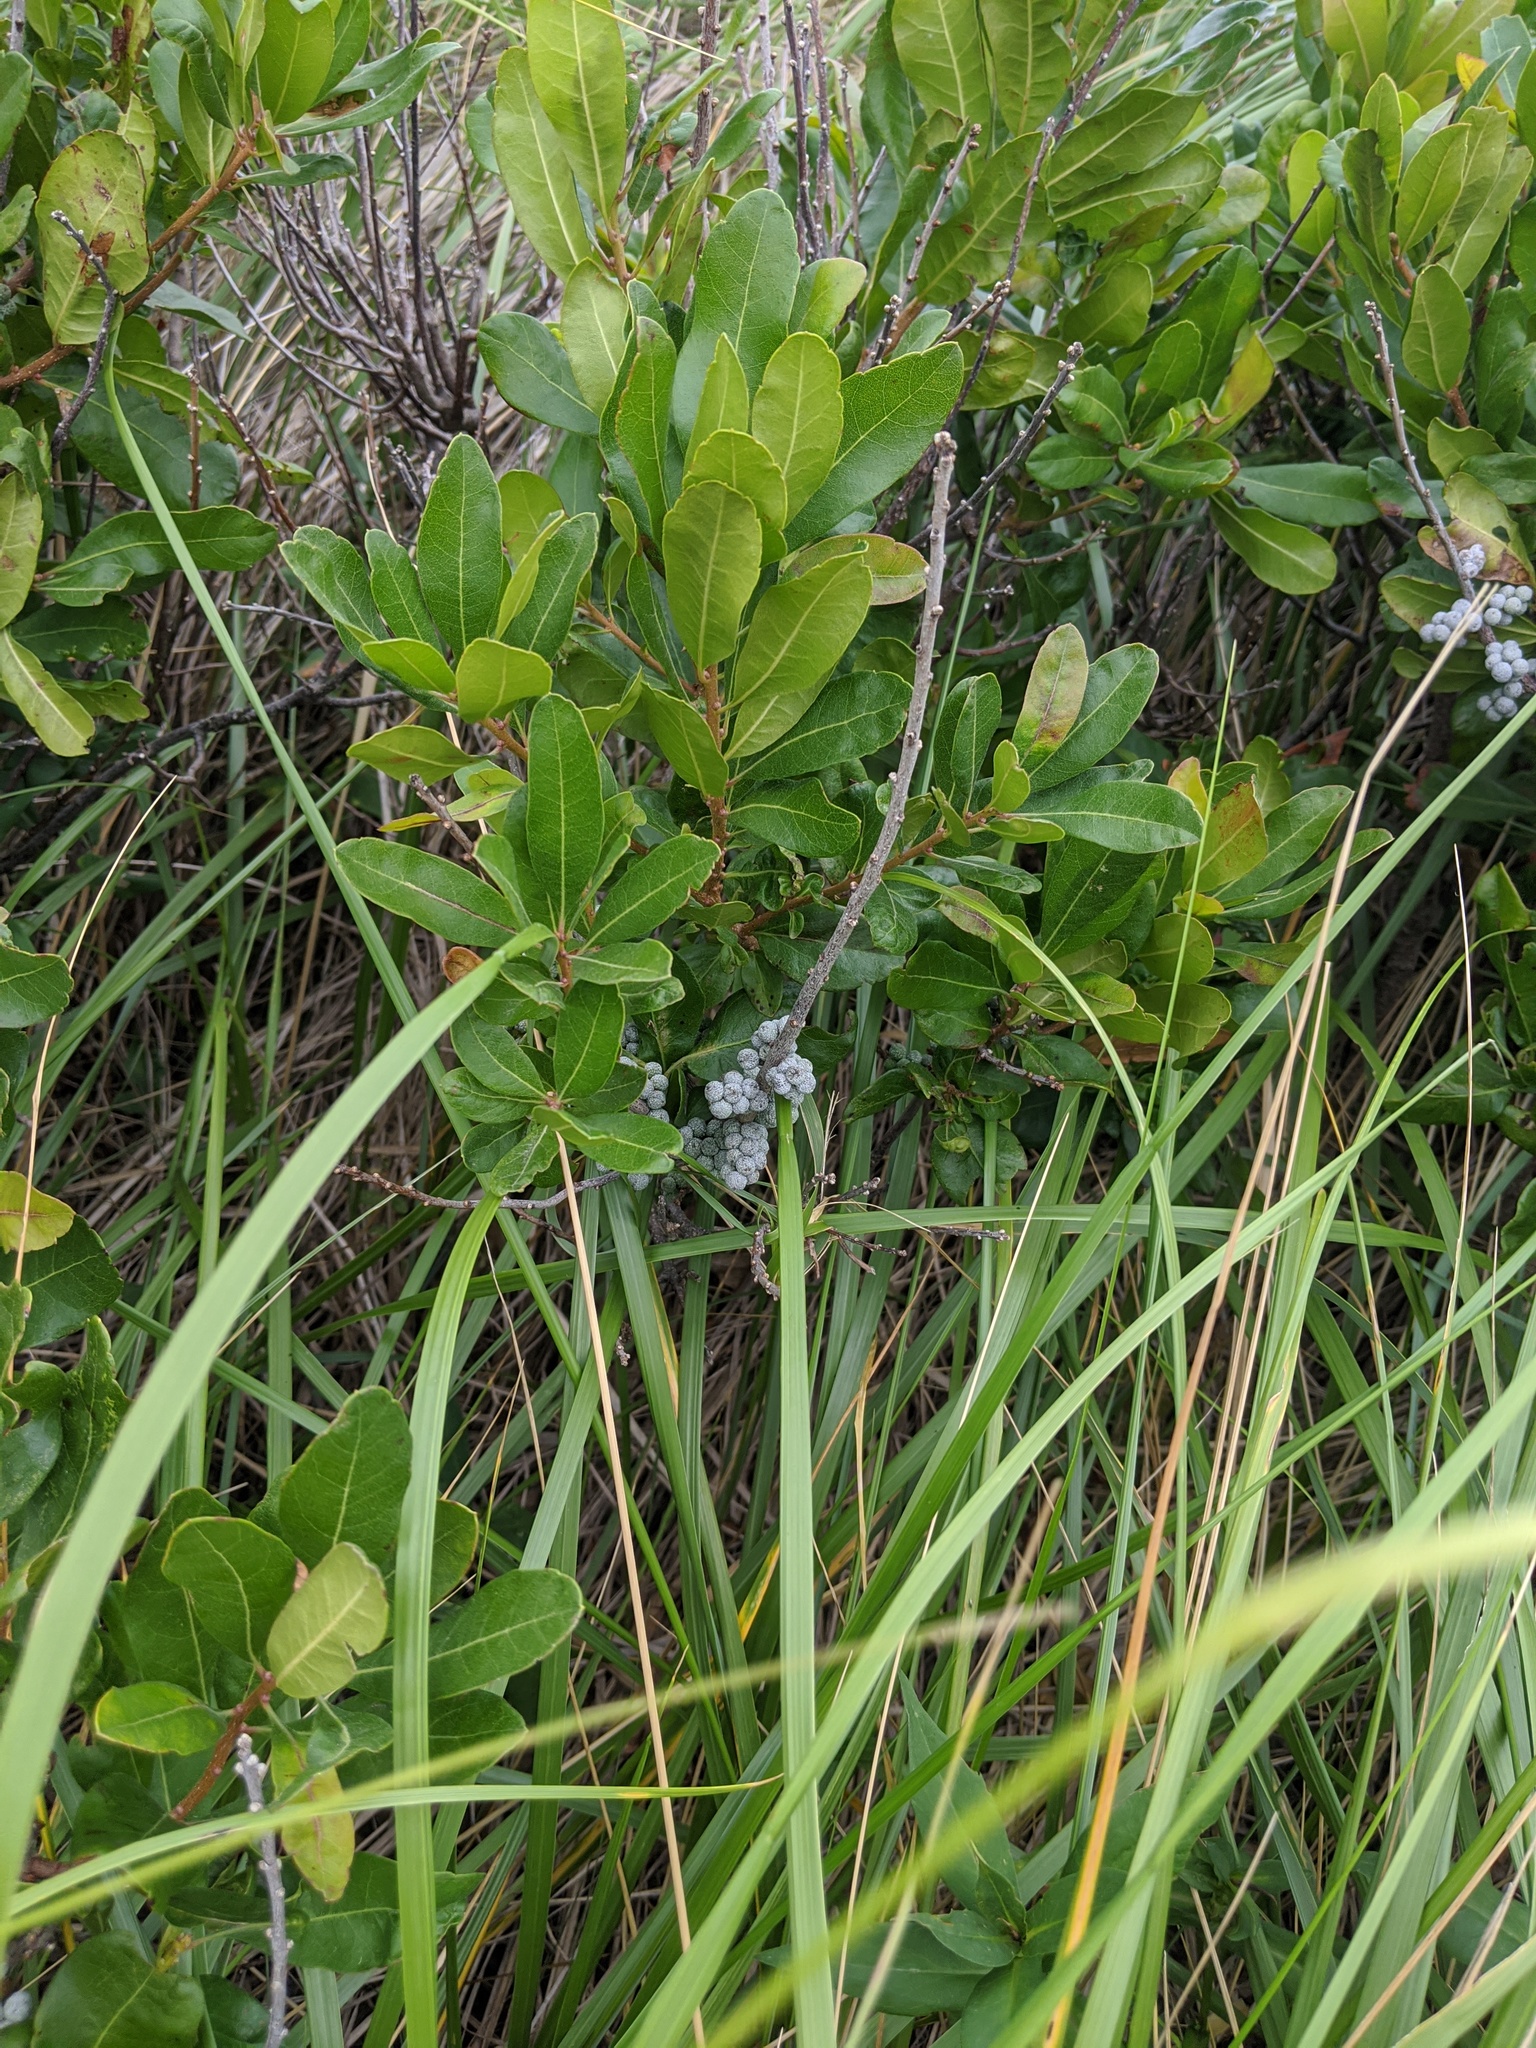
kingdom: Plantae
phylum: Tracheophyta
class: Magnoliopsida
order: Fagales
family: Myricaceae
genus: Morella
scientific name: Morella pensylvanica
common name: Northern bayberry
